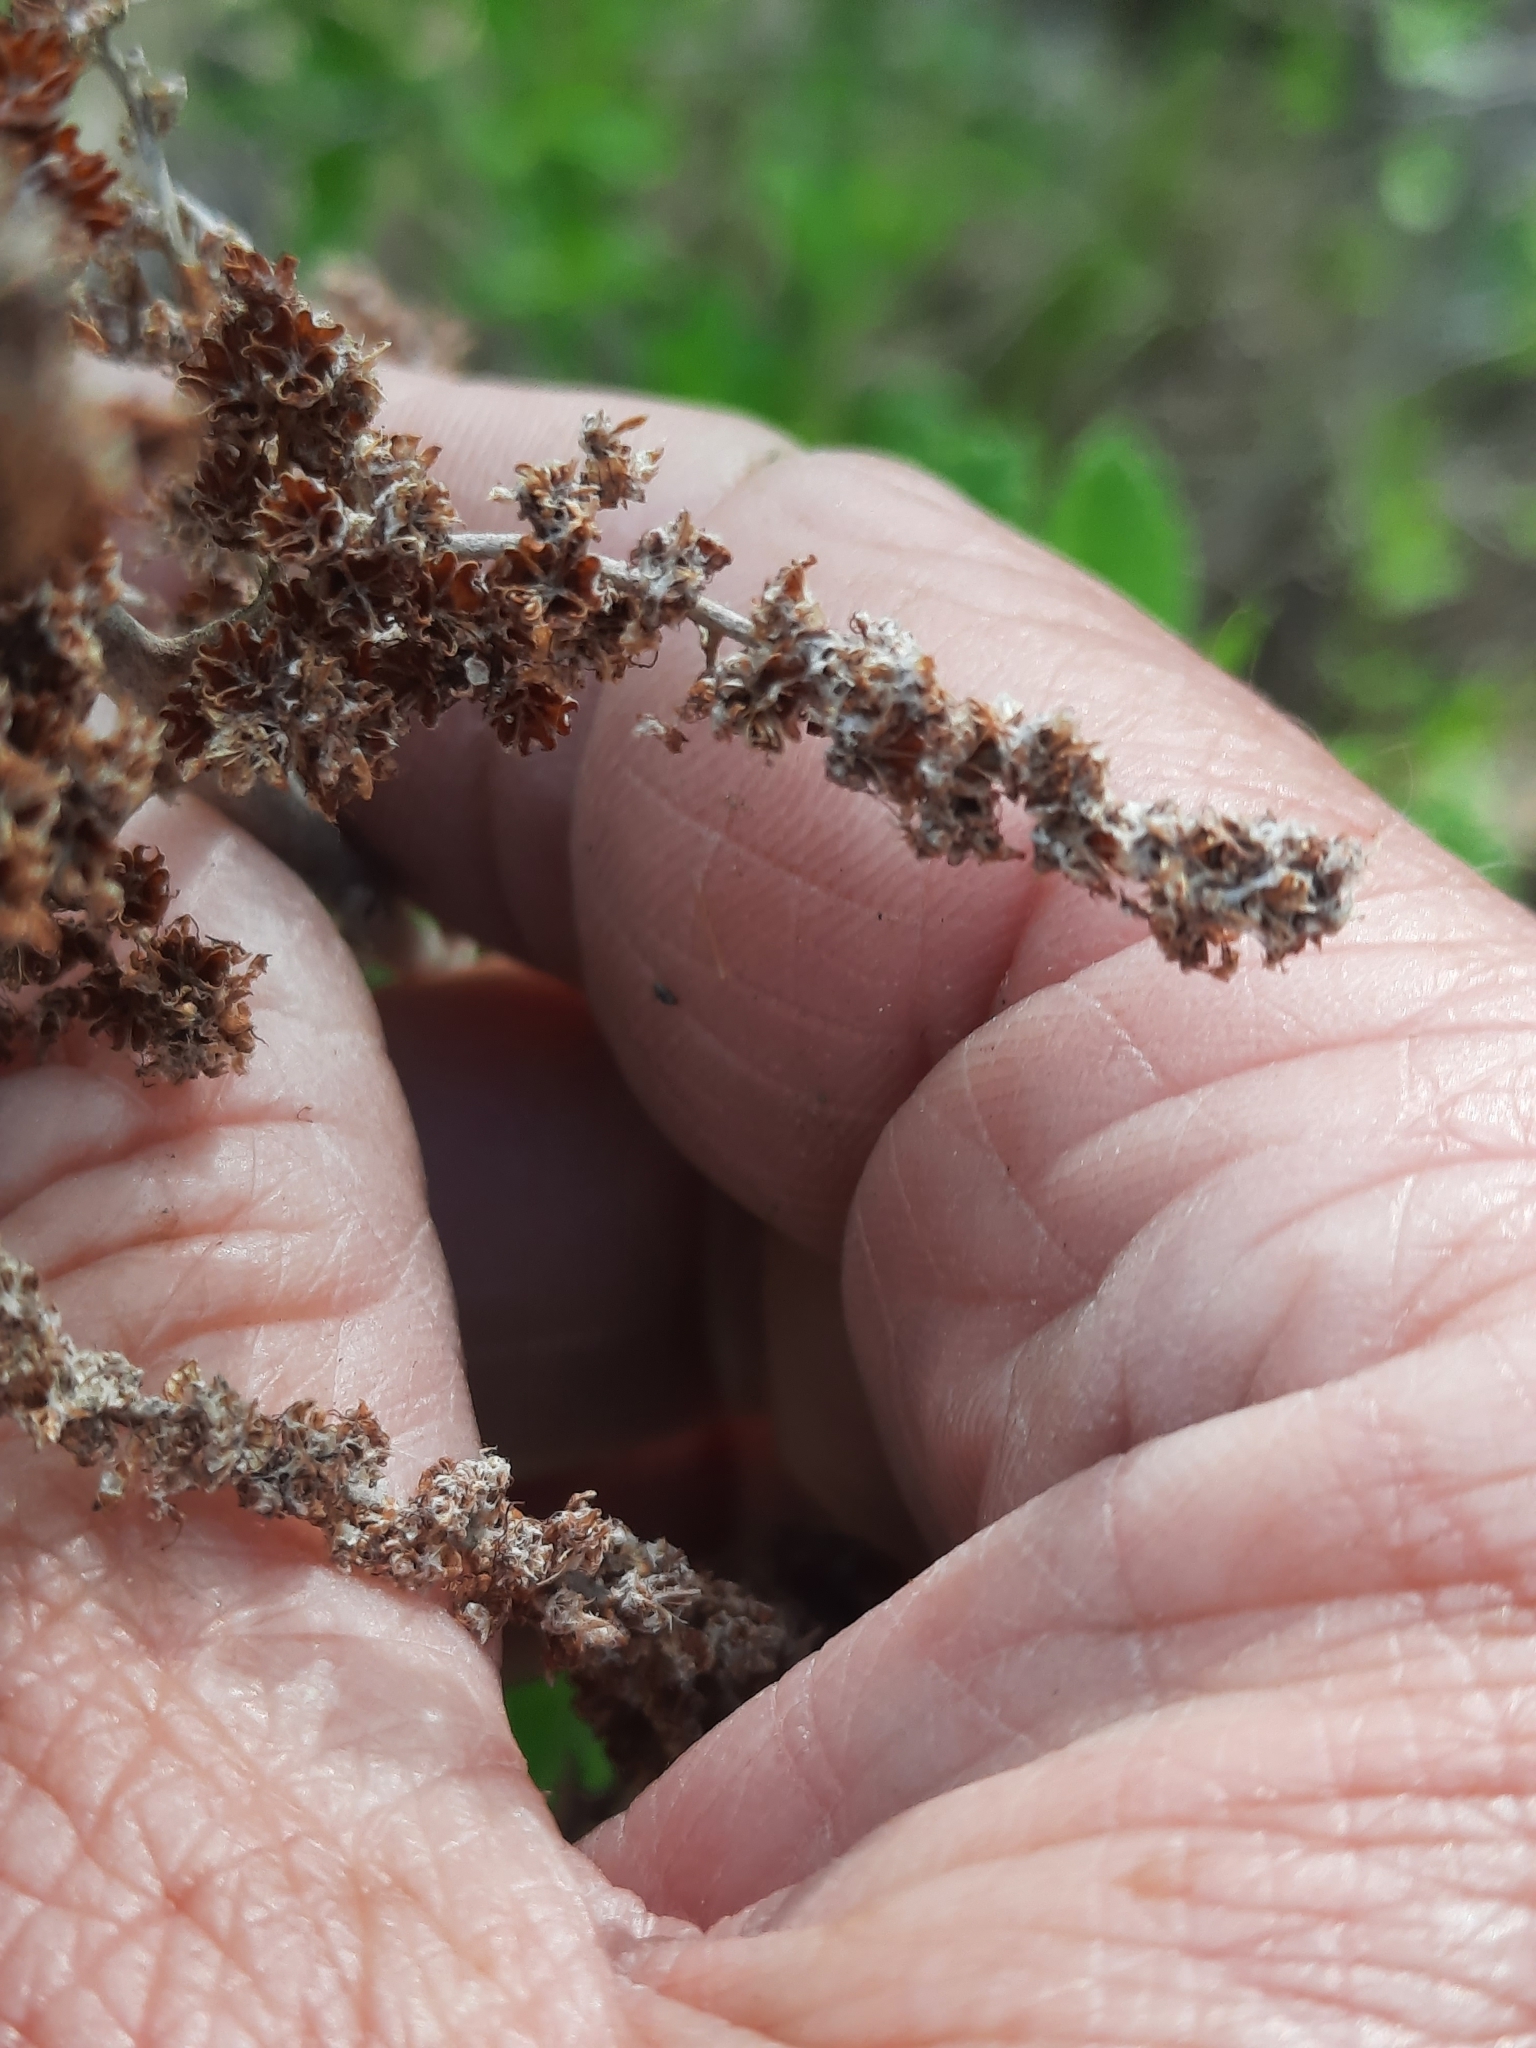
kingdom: Plantae
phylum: Tracheophyta
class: Magnoliopsida
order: Rosales
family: Rosaceae
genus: Spiraea
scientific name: Spiraea tomentosa
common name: Hardhack
